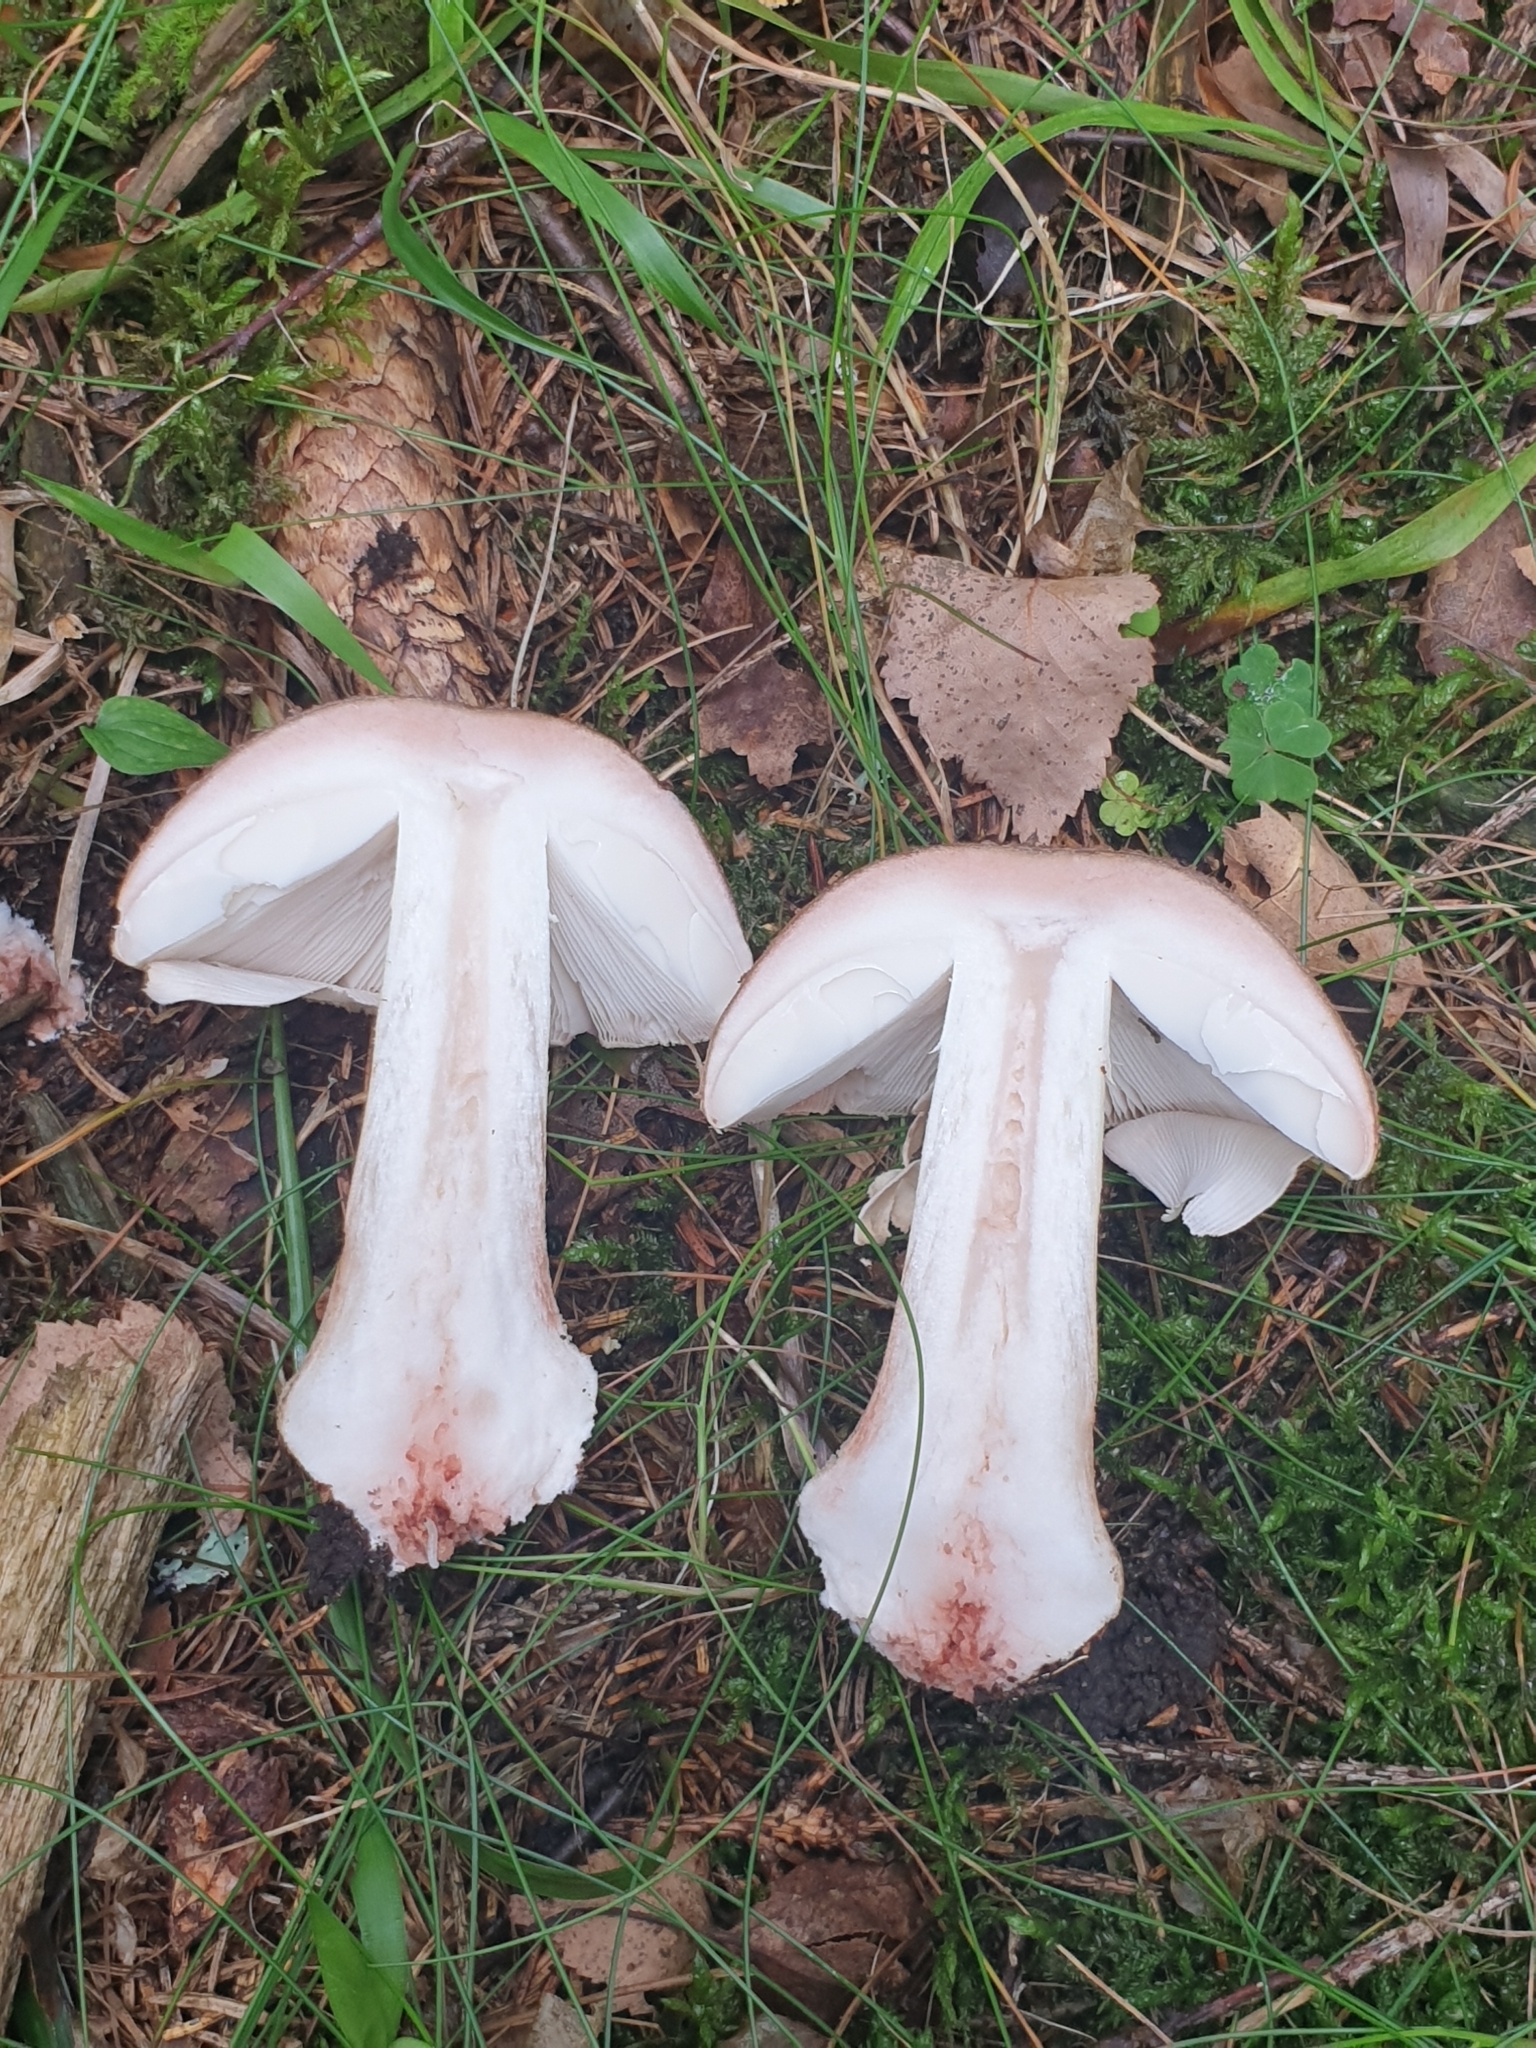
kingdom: Fungi
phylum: Basidiomycota
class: Agaricomycetes
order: Agaricales
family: Amanitaceae
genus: Amanita
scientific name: Amanita rubescens
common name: Blusher
